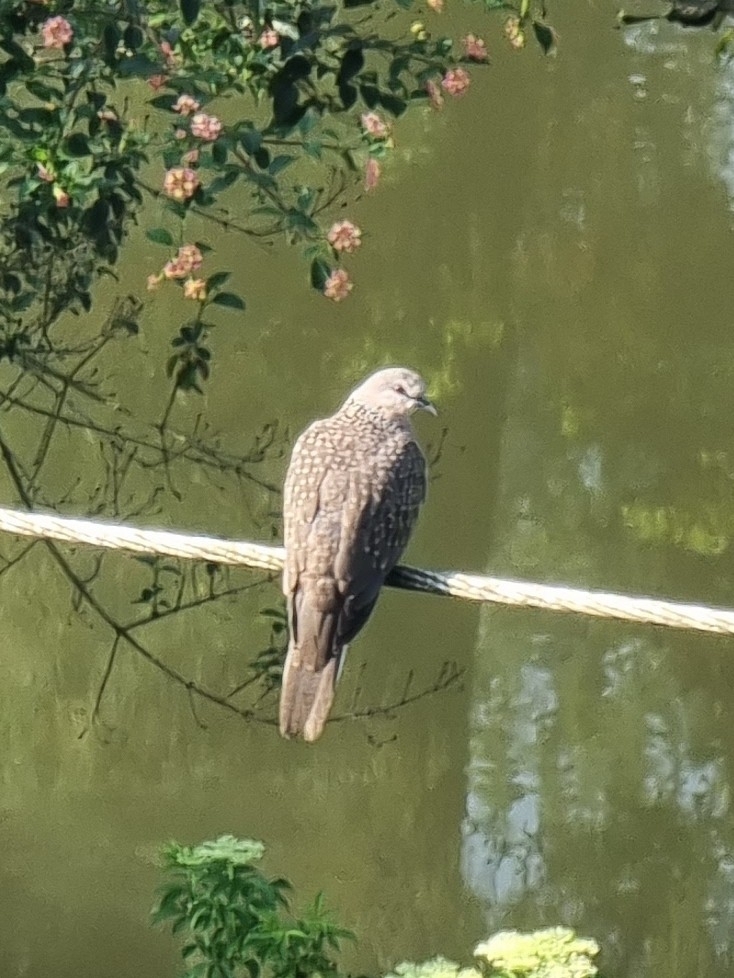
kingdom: Animalia
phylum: Chordata
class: Aves
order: Columbiformes
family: Columbidae
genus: Spilopelia
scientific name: Spilopelia chinensis
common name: Spotted dove
